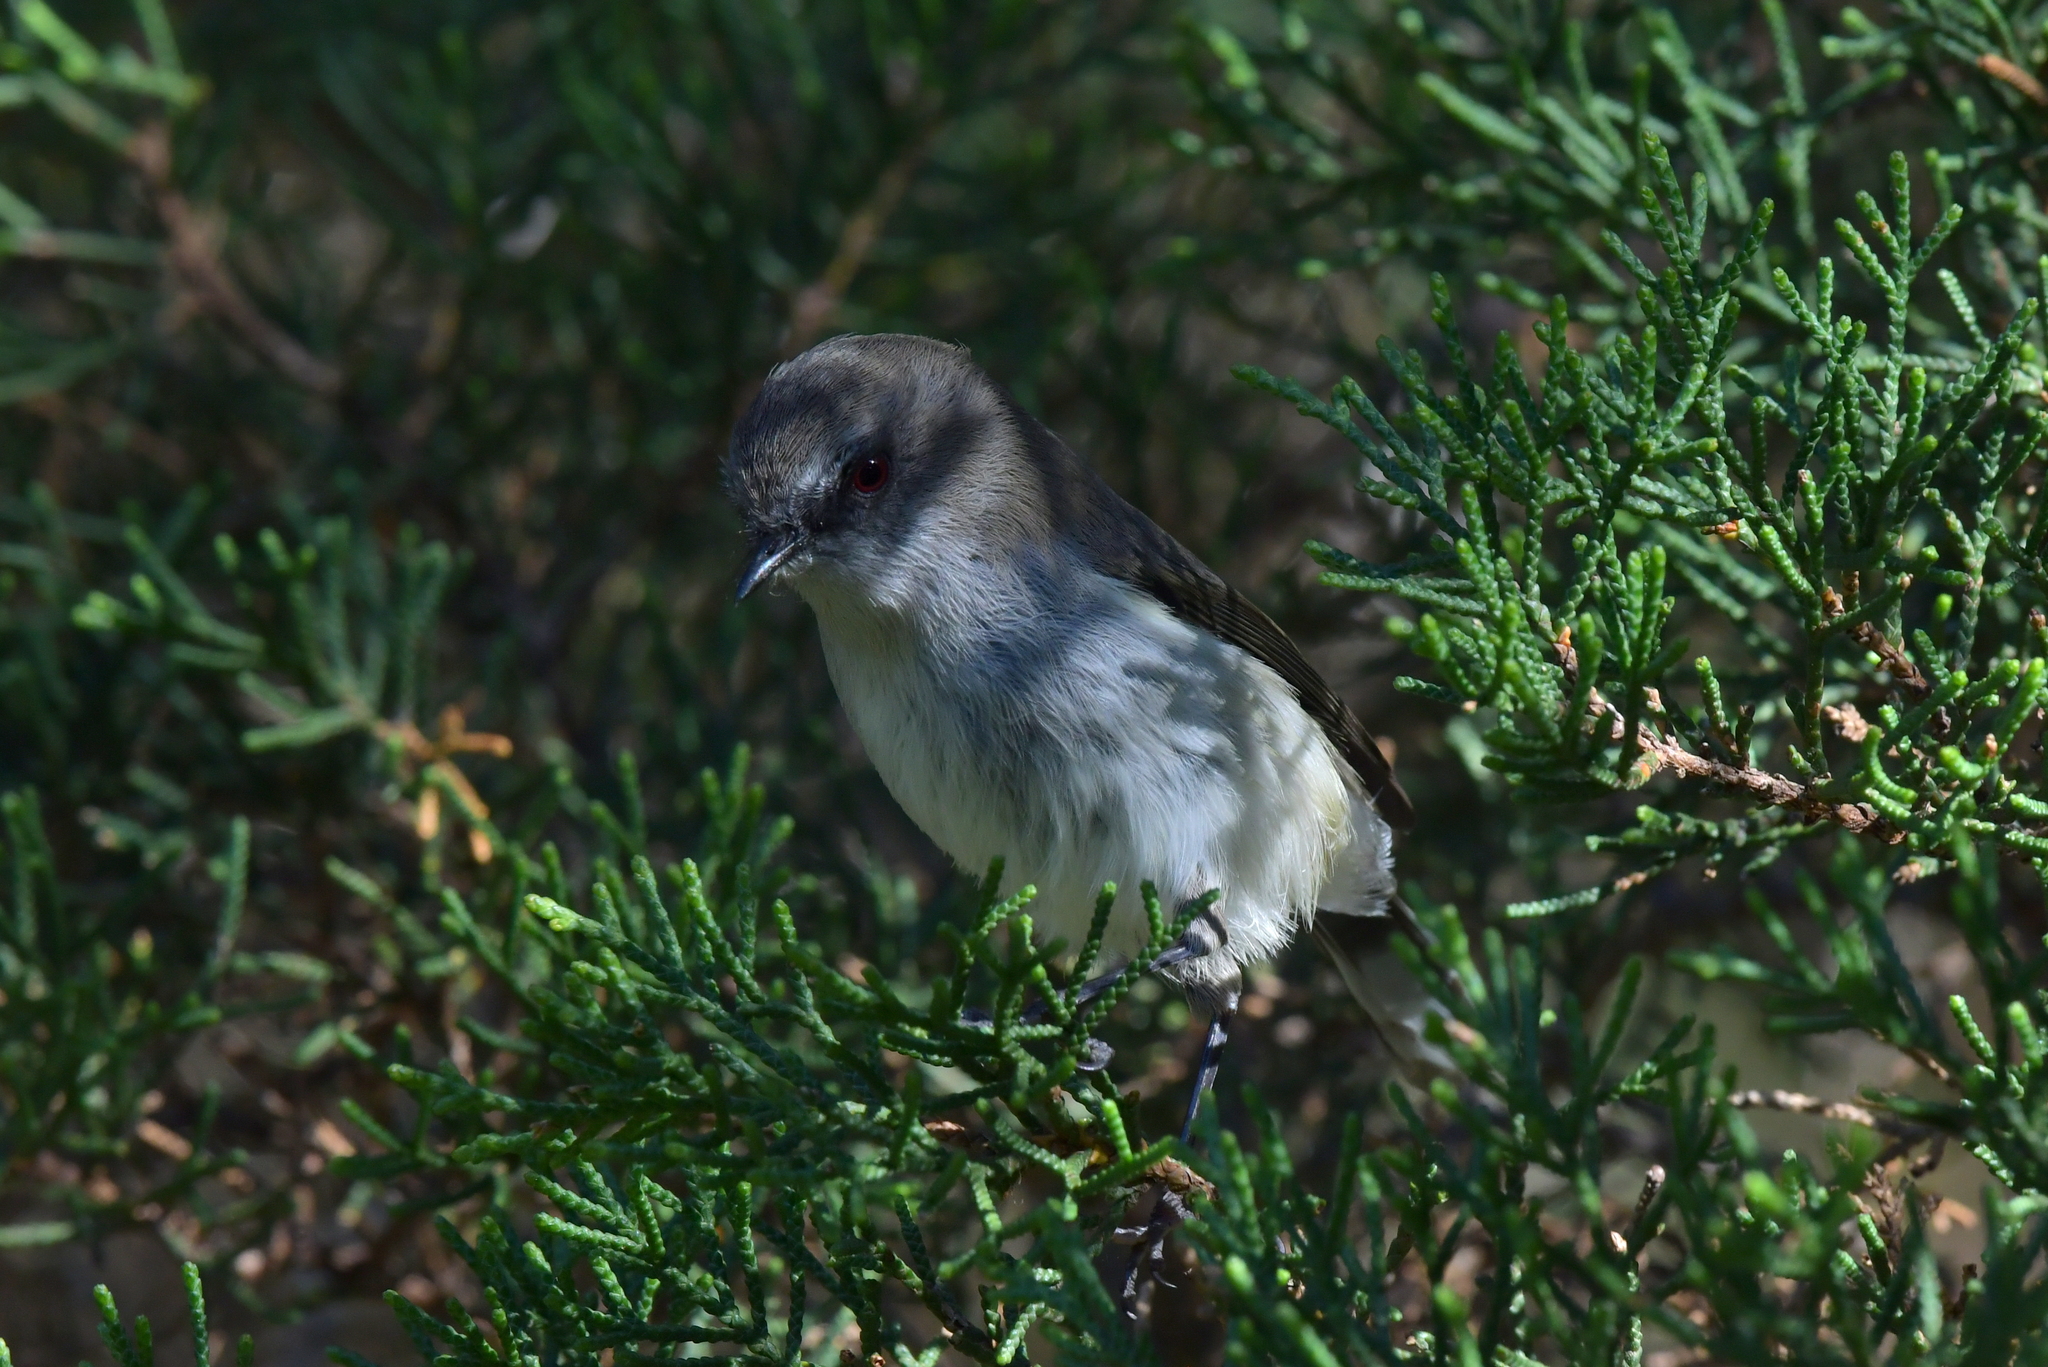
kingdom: Animalia
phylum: Chordata
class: Aves
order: Passeriformes
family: Acanthizidae
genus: Gerygone
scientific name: Gerygone igata
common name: Grey gerygone
